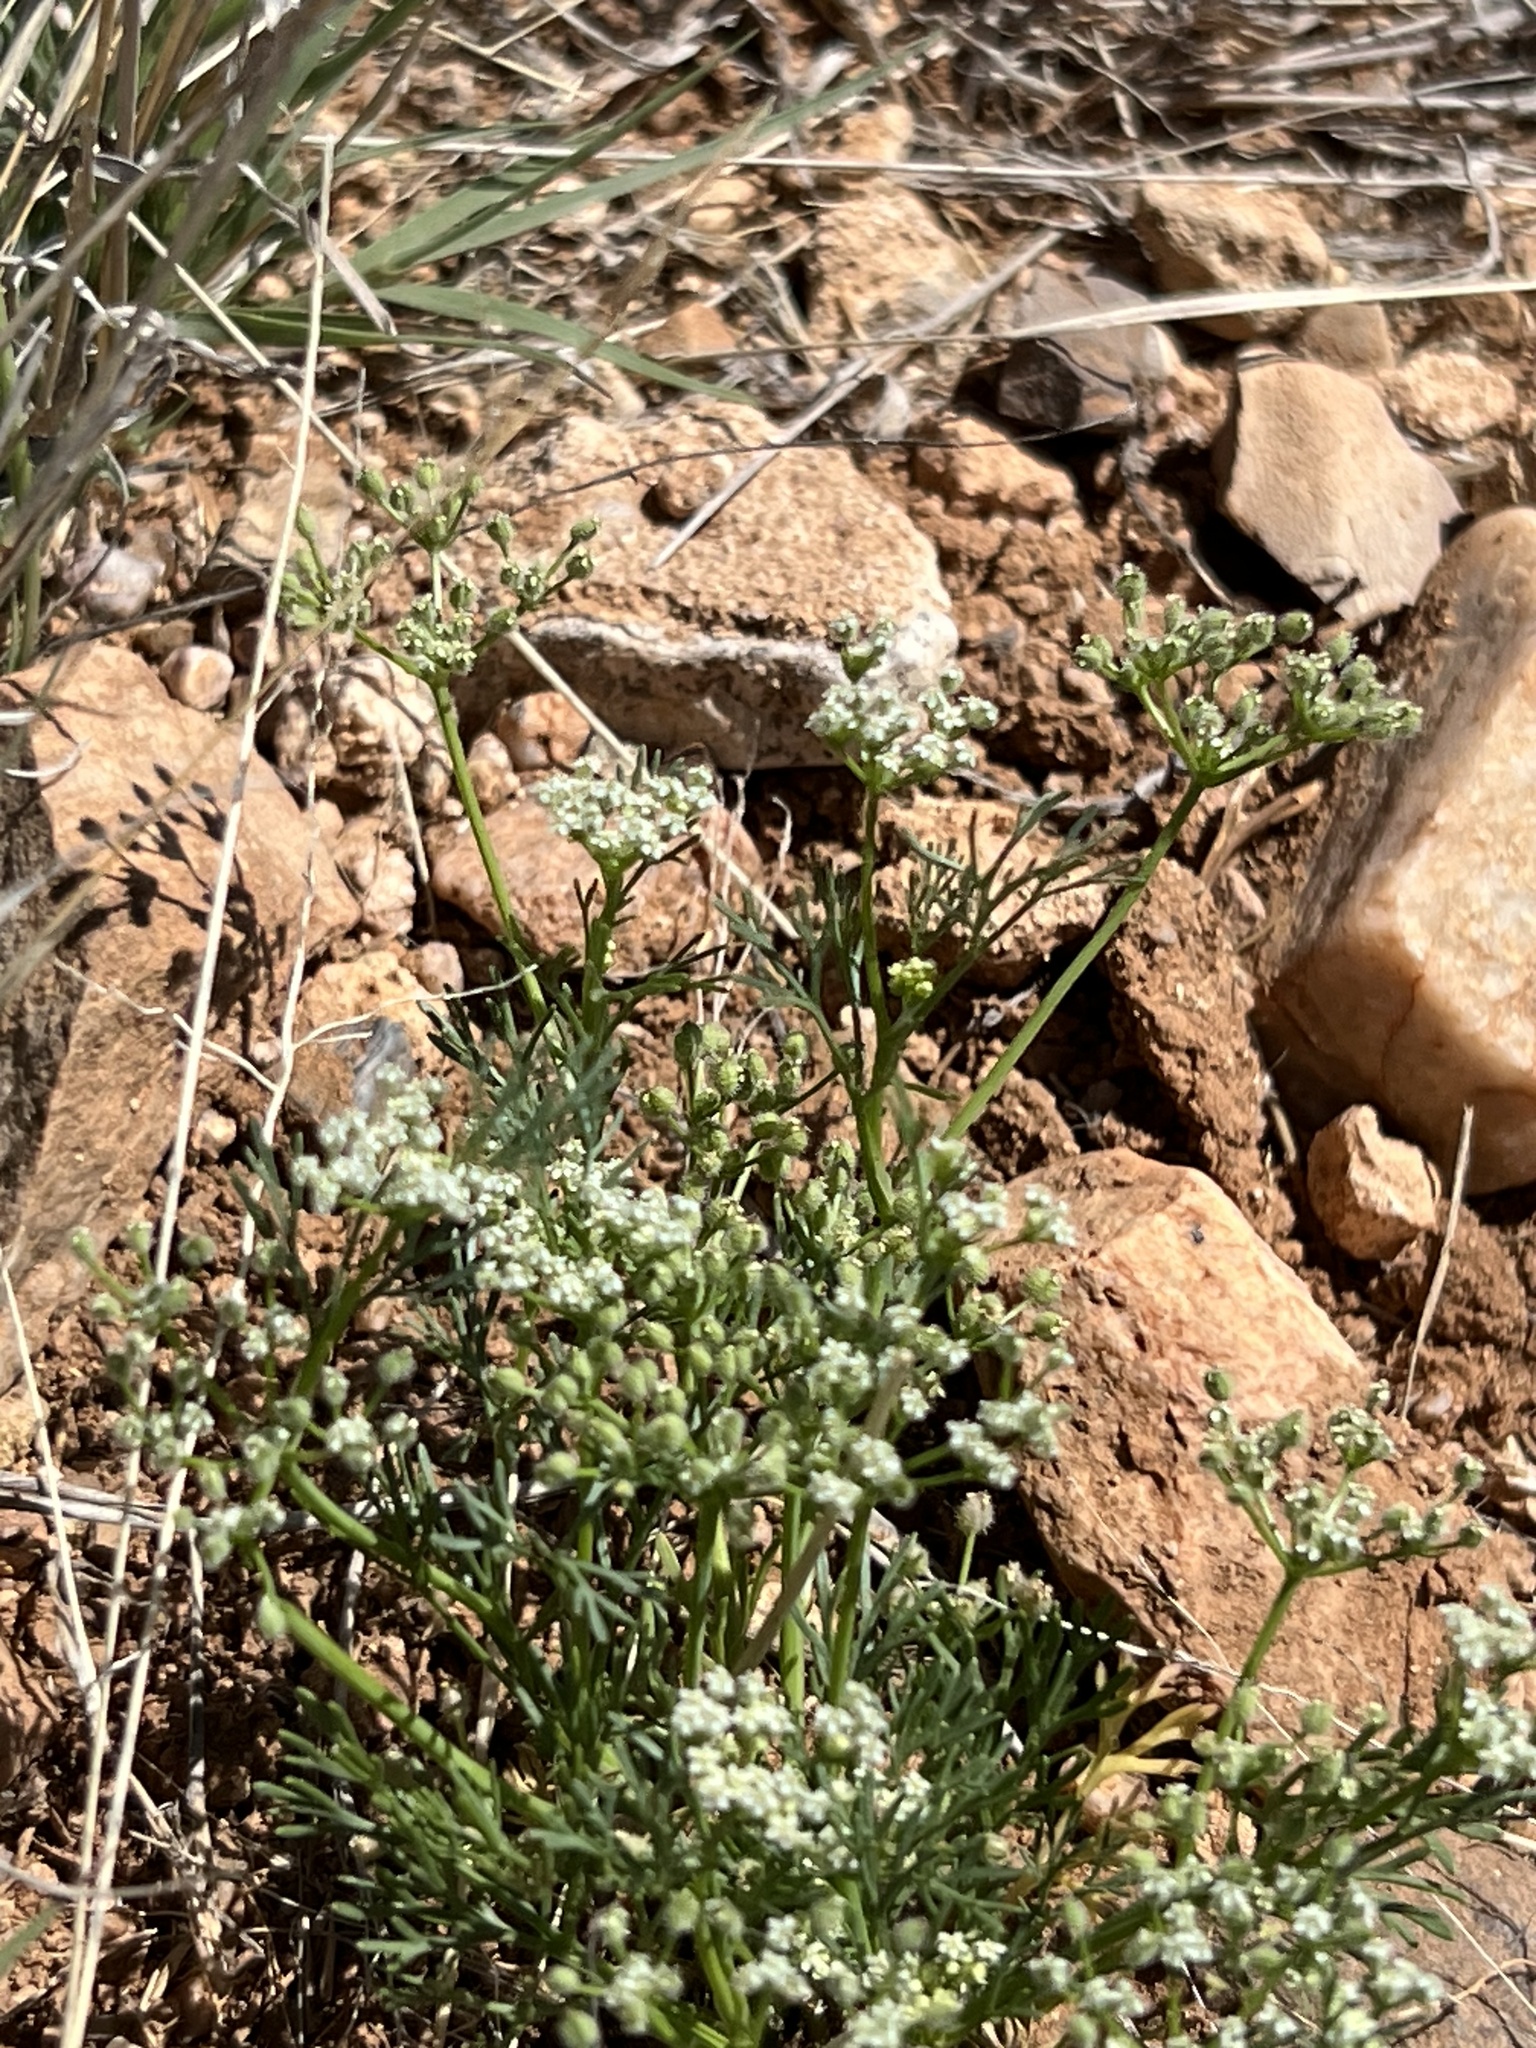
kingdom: Plantae
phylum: Tracheophyta
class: Magnoliopsida
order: Apiales
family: Apiaceae
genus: Spermolepis
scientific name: Spermolepis lateriflora
